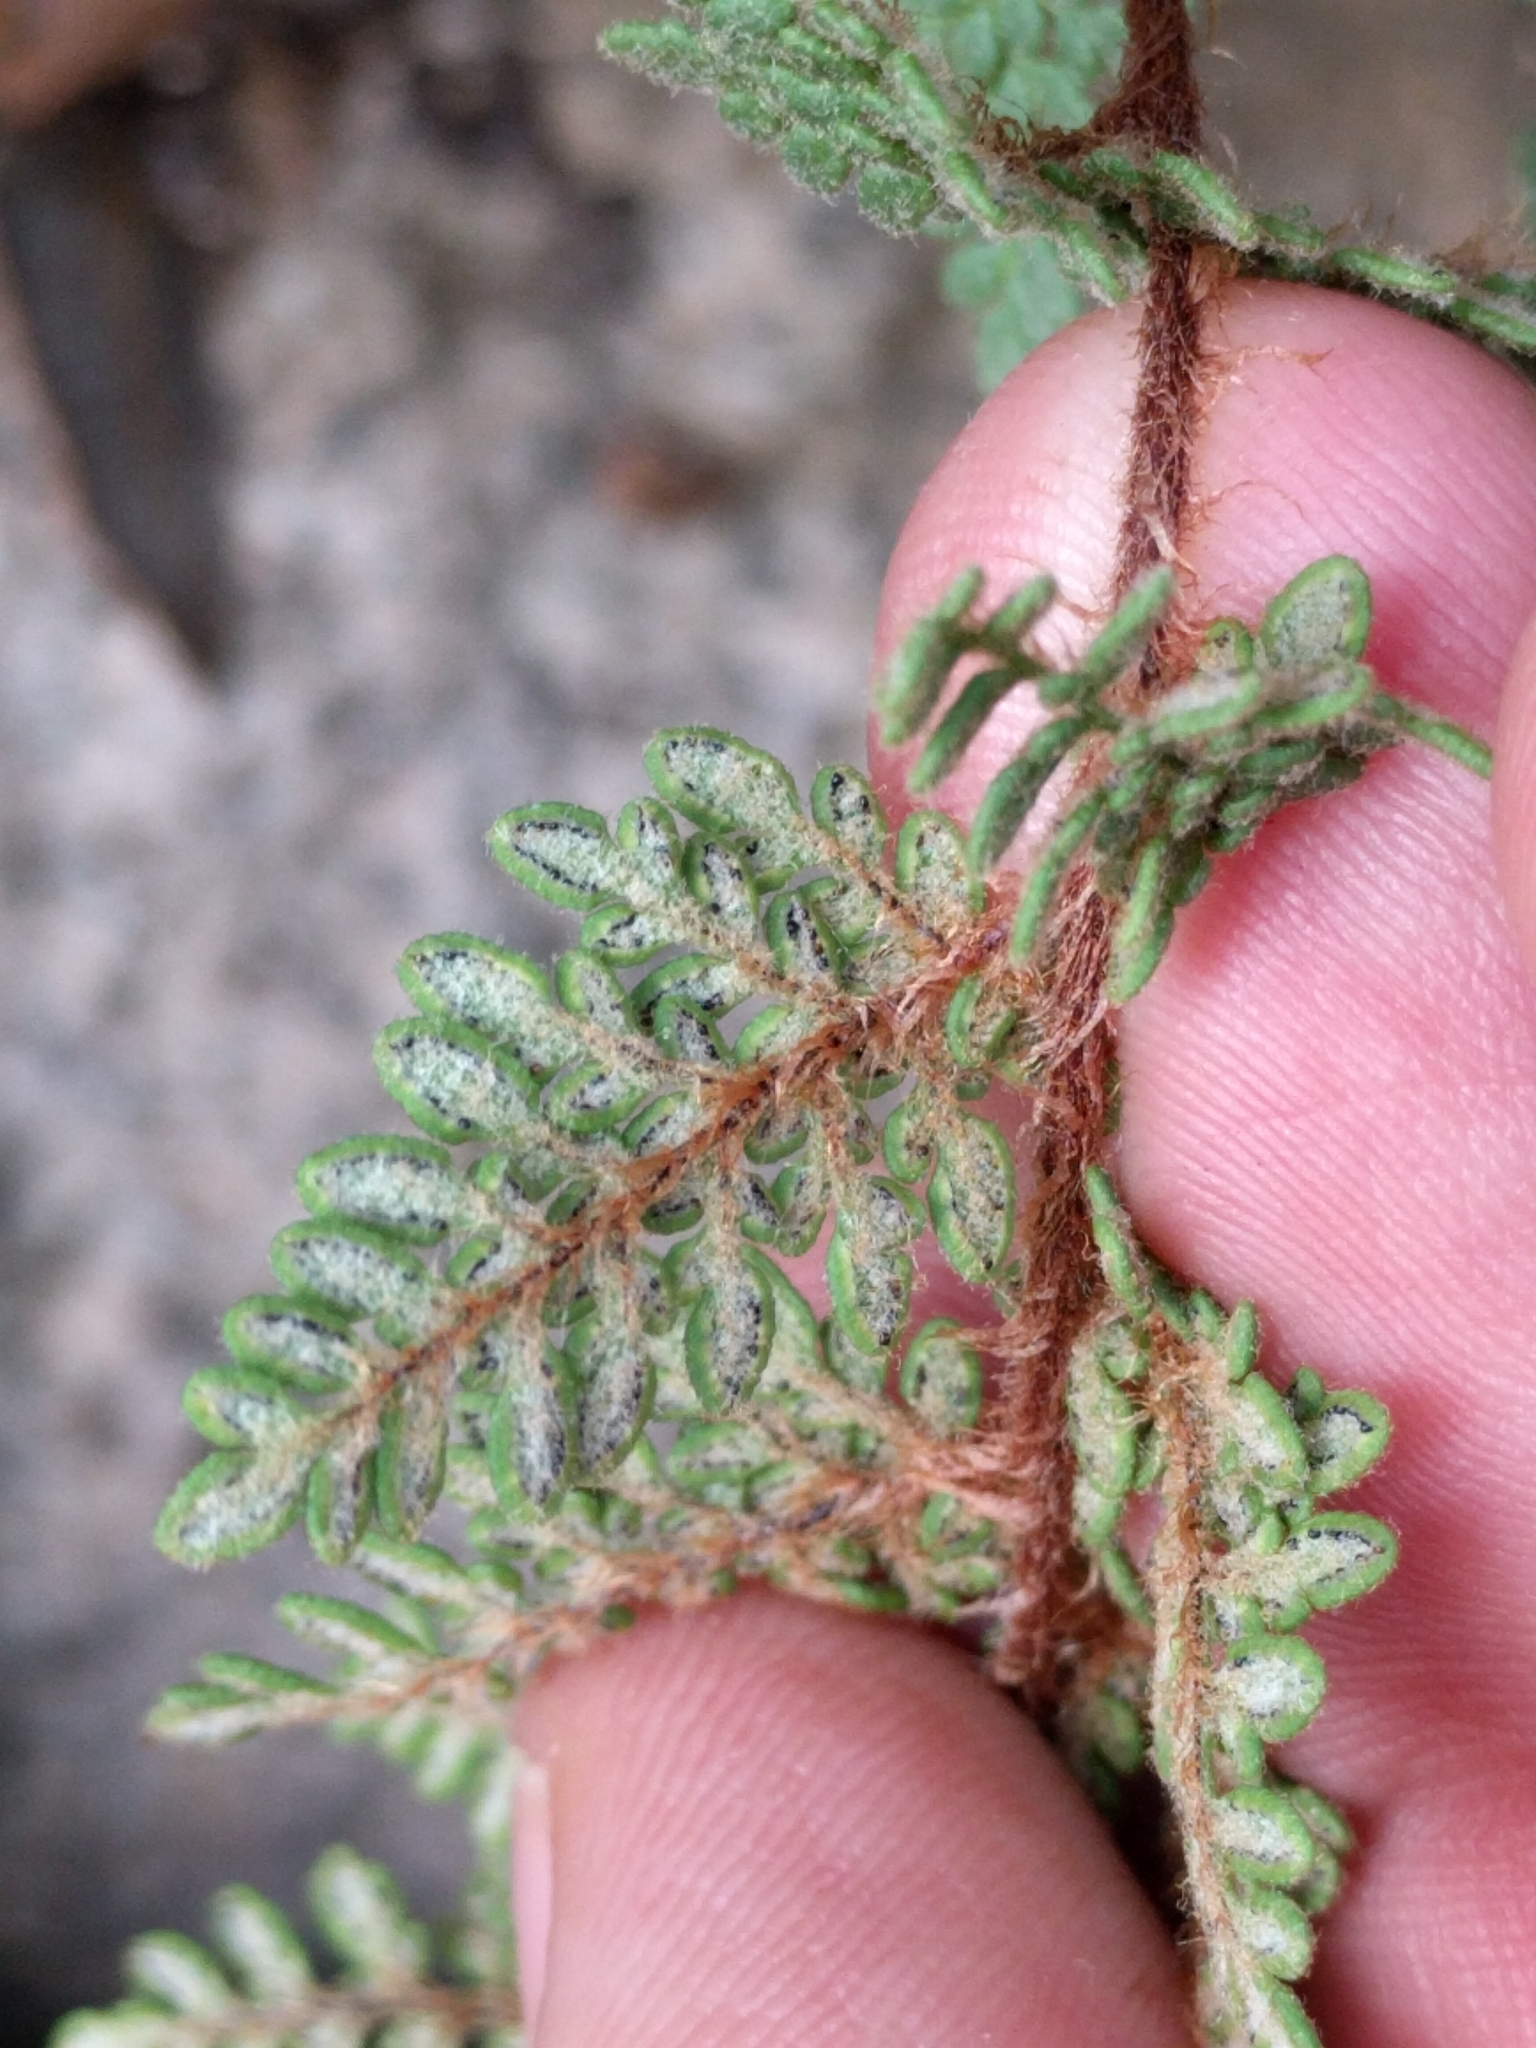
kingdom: Plantae
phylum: Tracheophyta
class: Polypodiopsida
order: Polypodiales
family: Pteridaceae
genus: Myriopteris
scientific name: Myriopteris tomentosa
